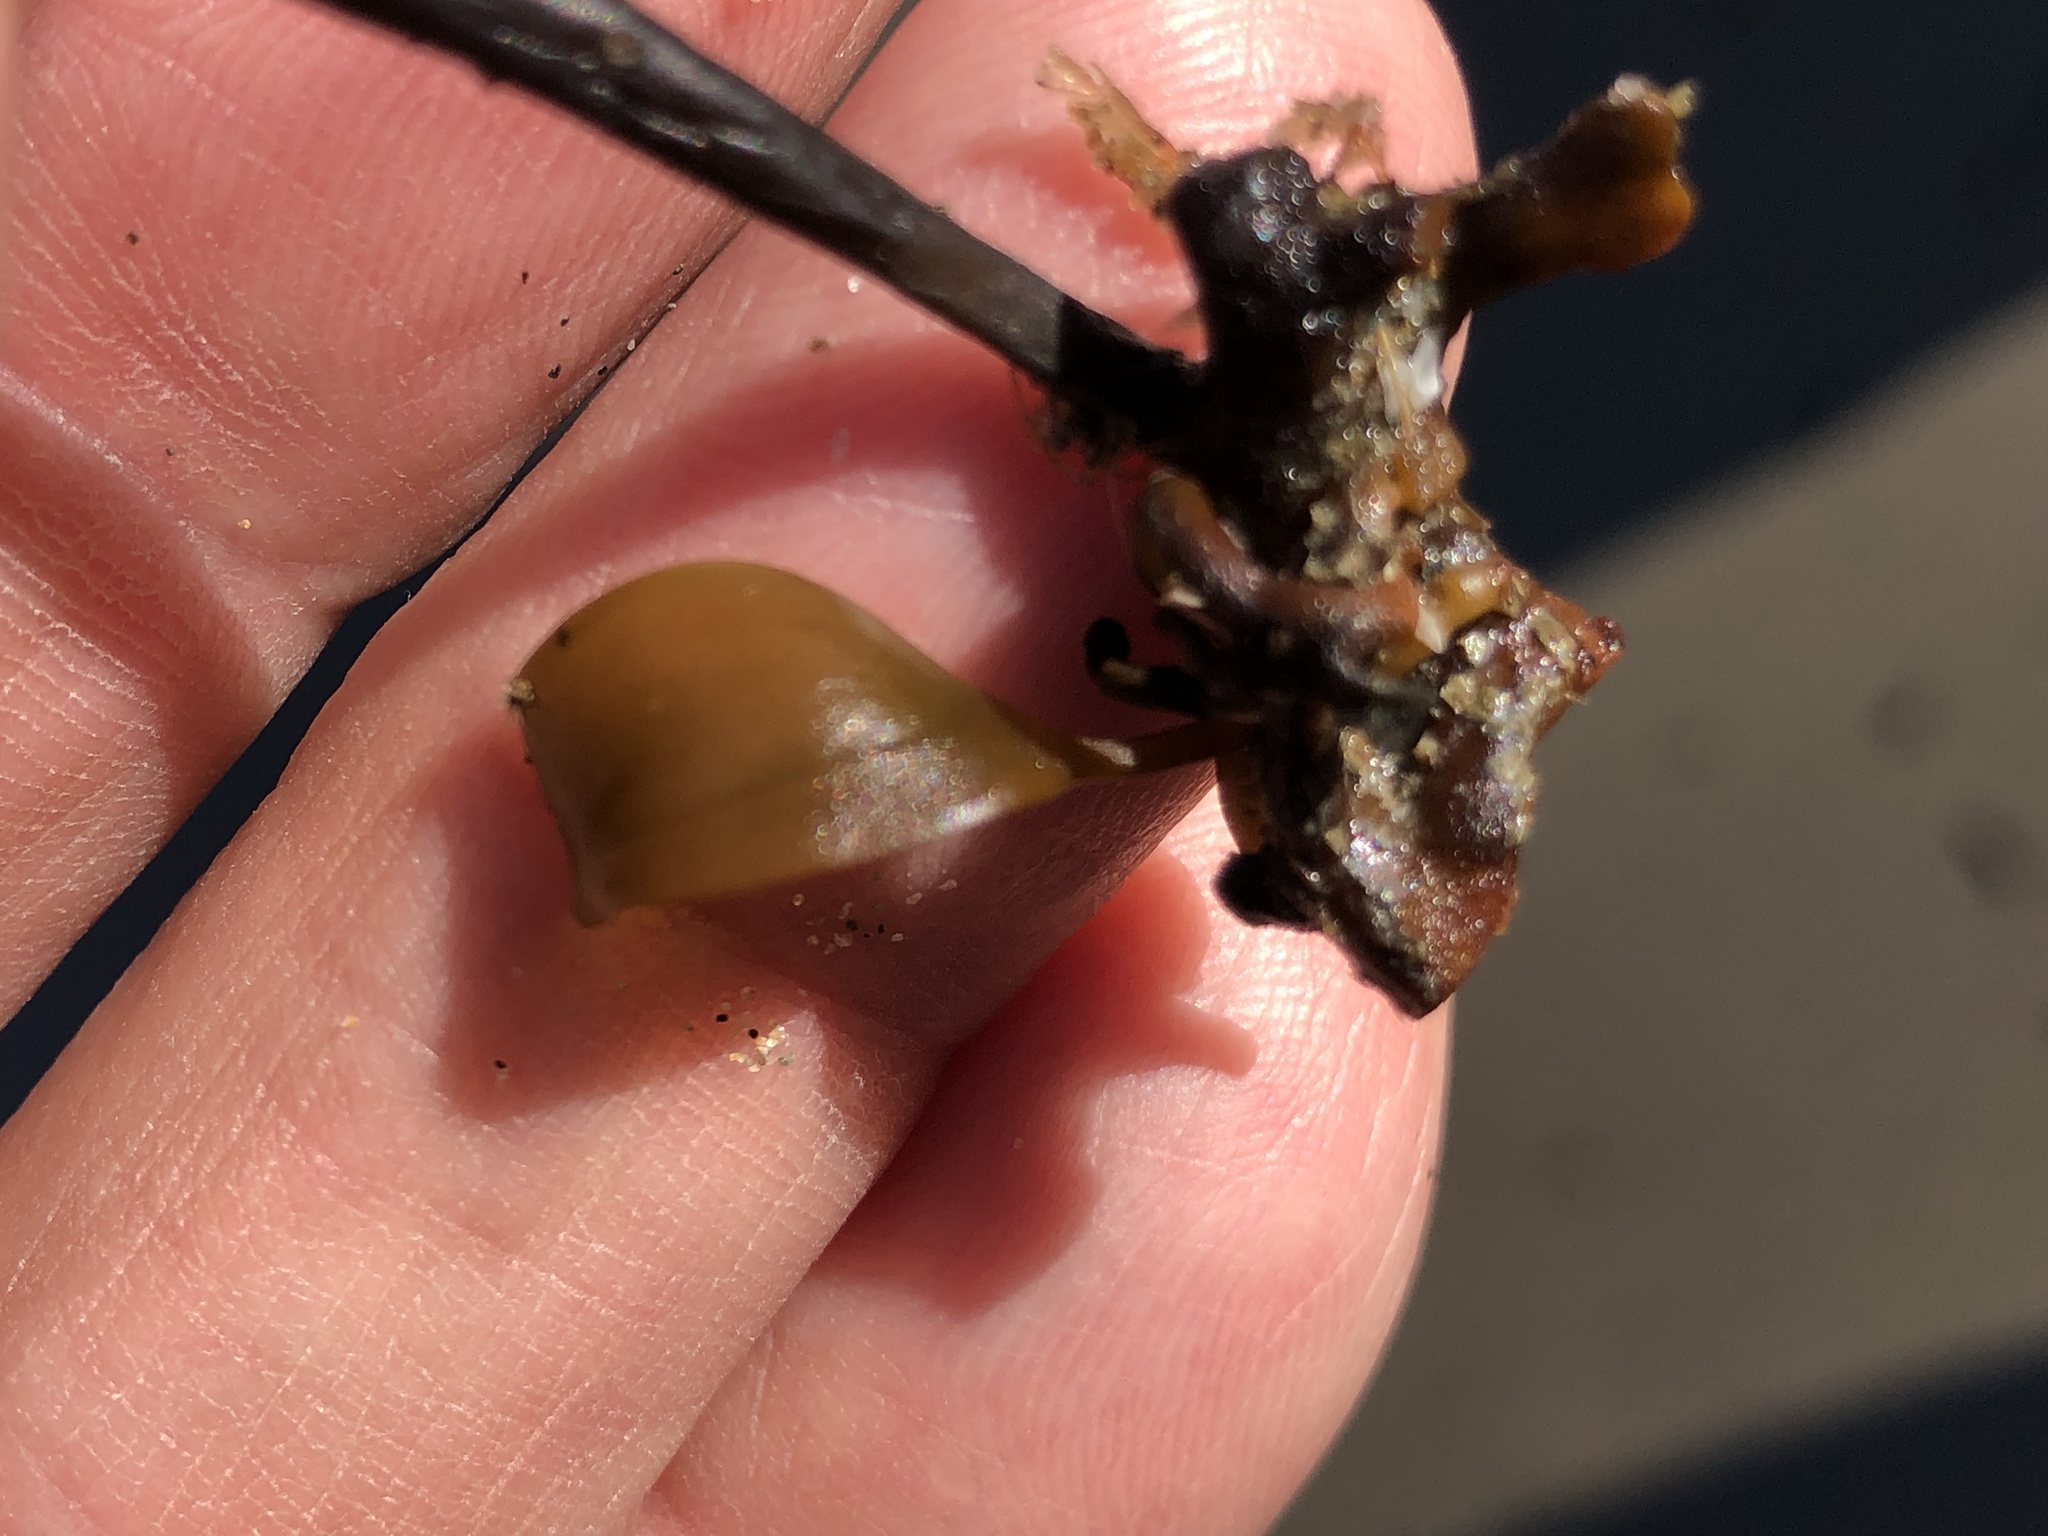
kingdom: Chromista
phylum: Ochrophyta
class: Phaeophyceae
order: Laminariales
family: Laminariaceae
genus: Laminaria
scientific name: Laminaria sinclairii
